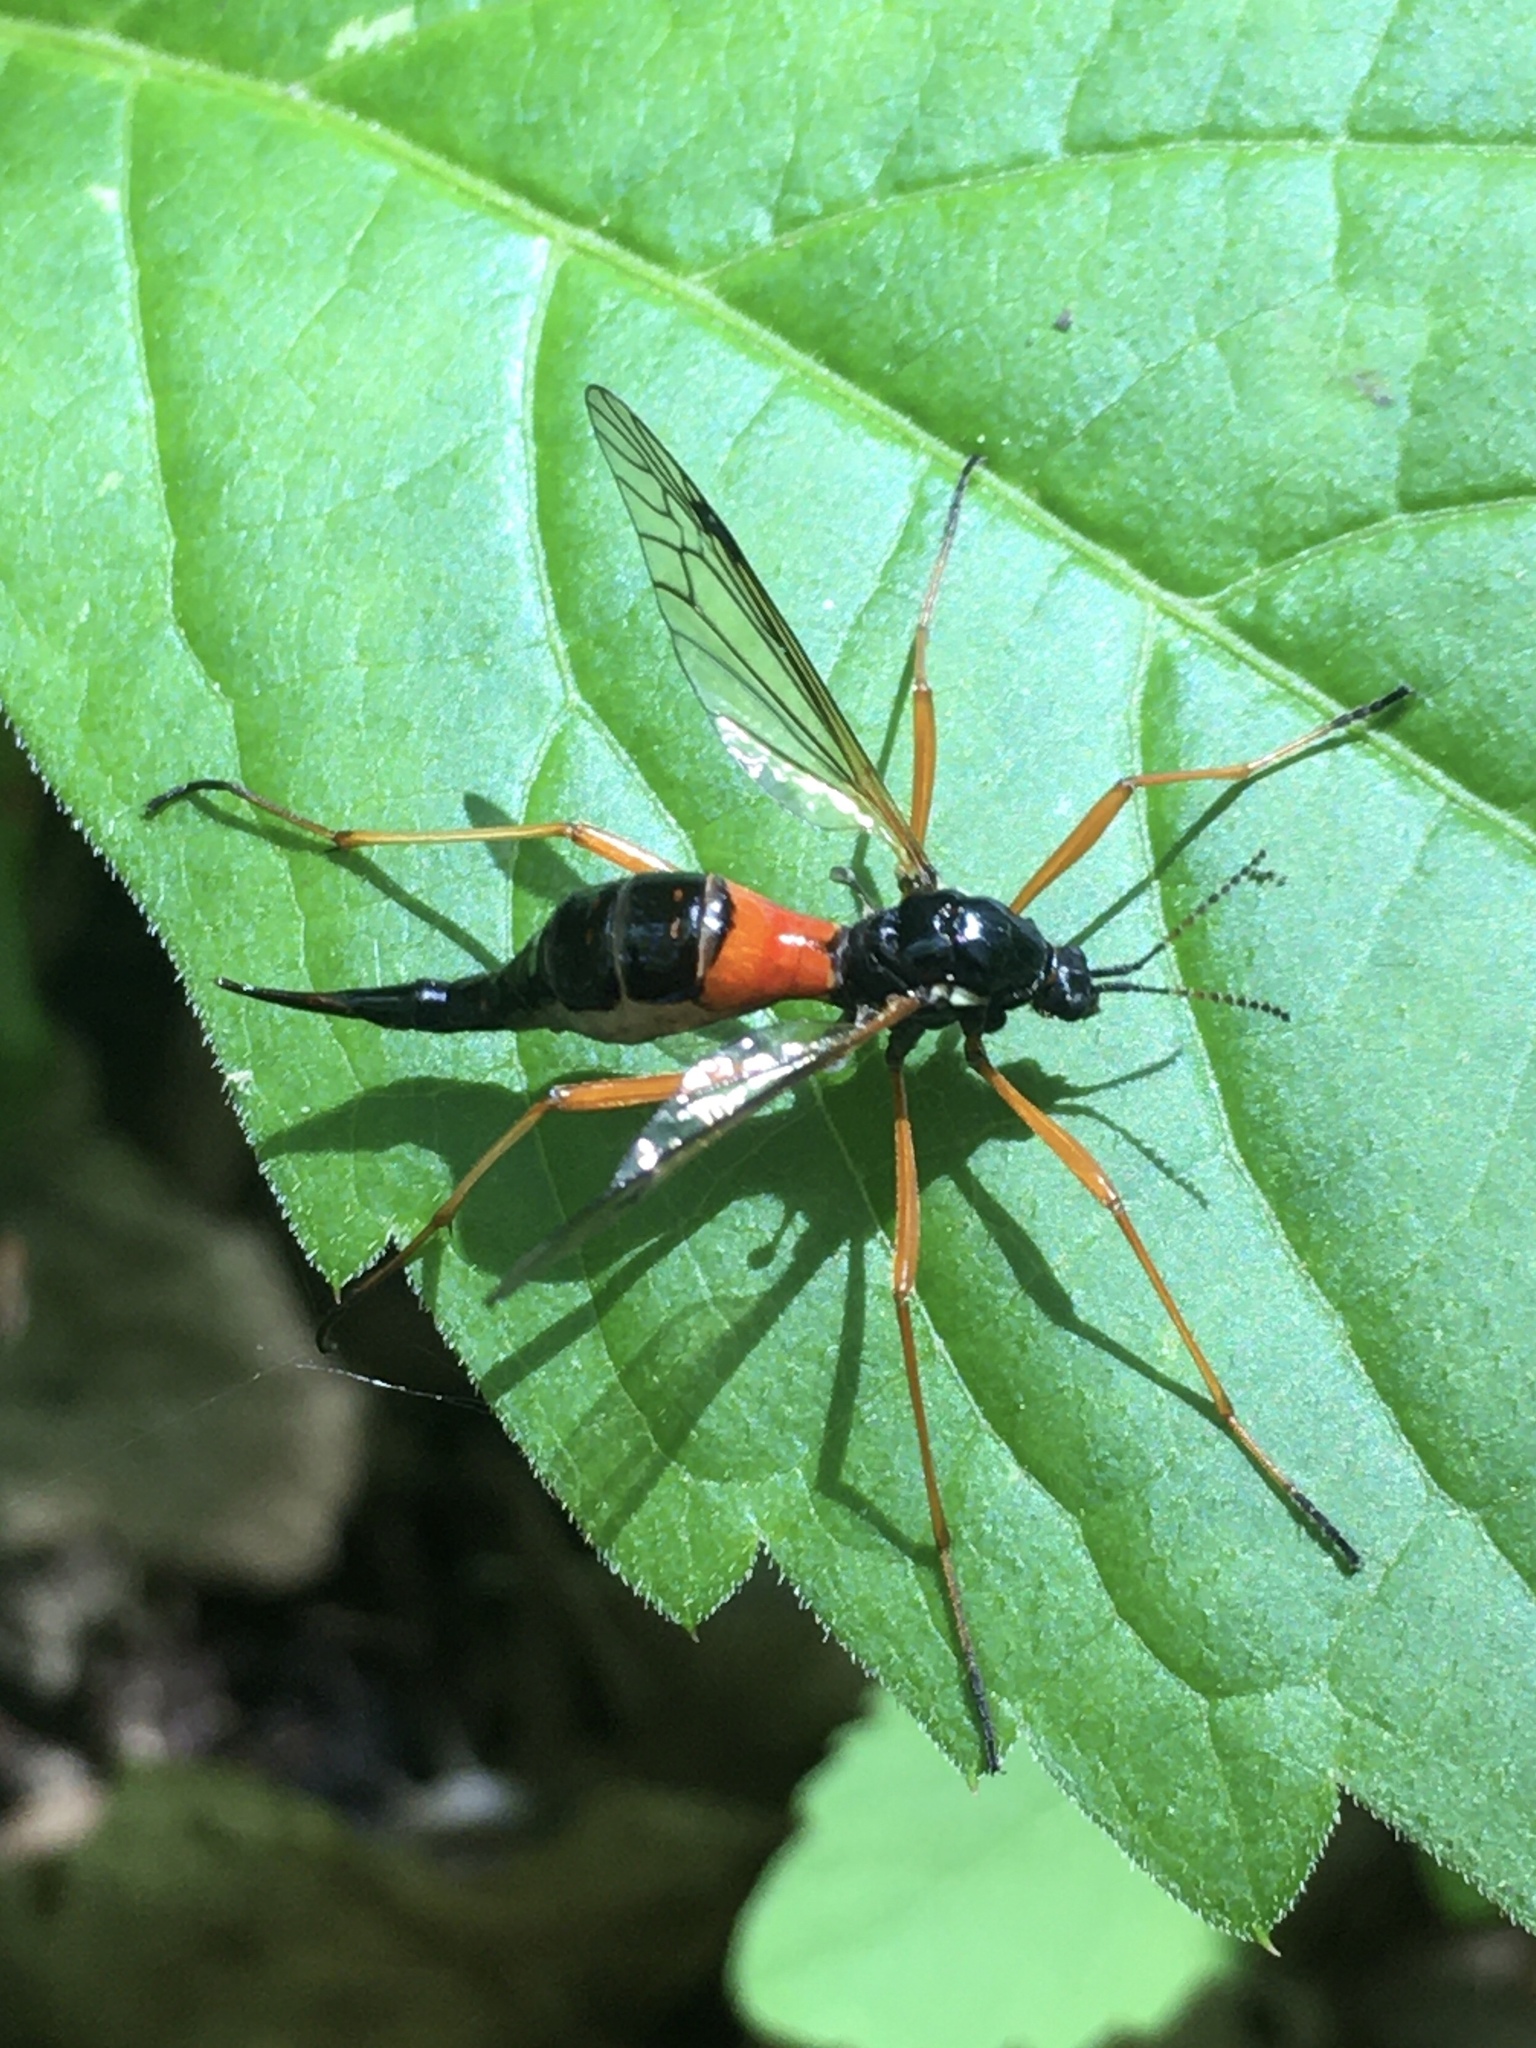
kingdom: Animalia
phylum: Arthropoda
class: Insecta
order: Diptera
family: Tipulidae
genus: Tanyptera
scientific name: Tanyptera dorsalis
